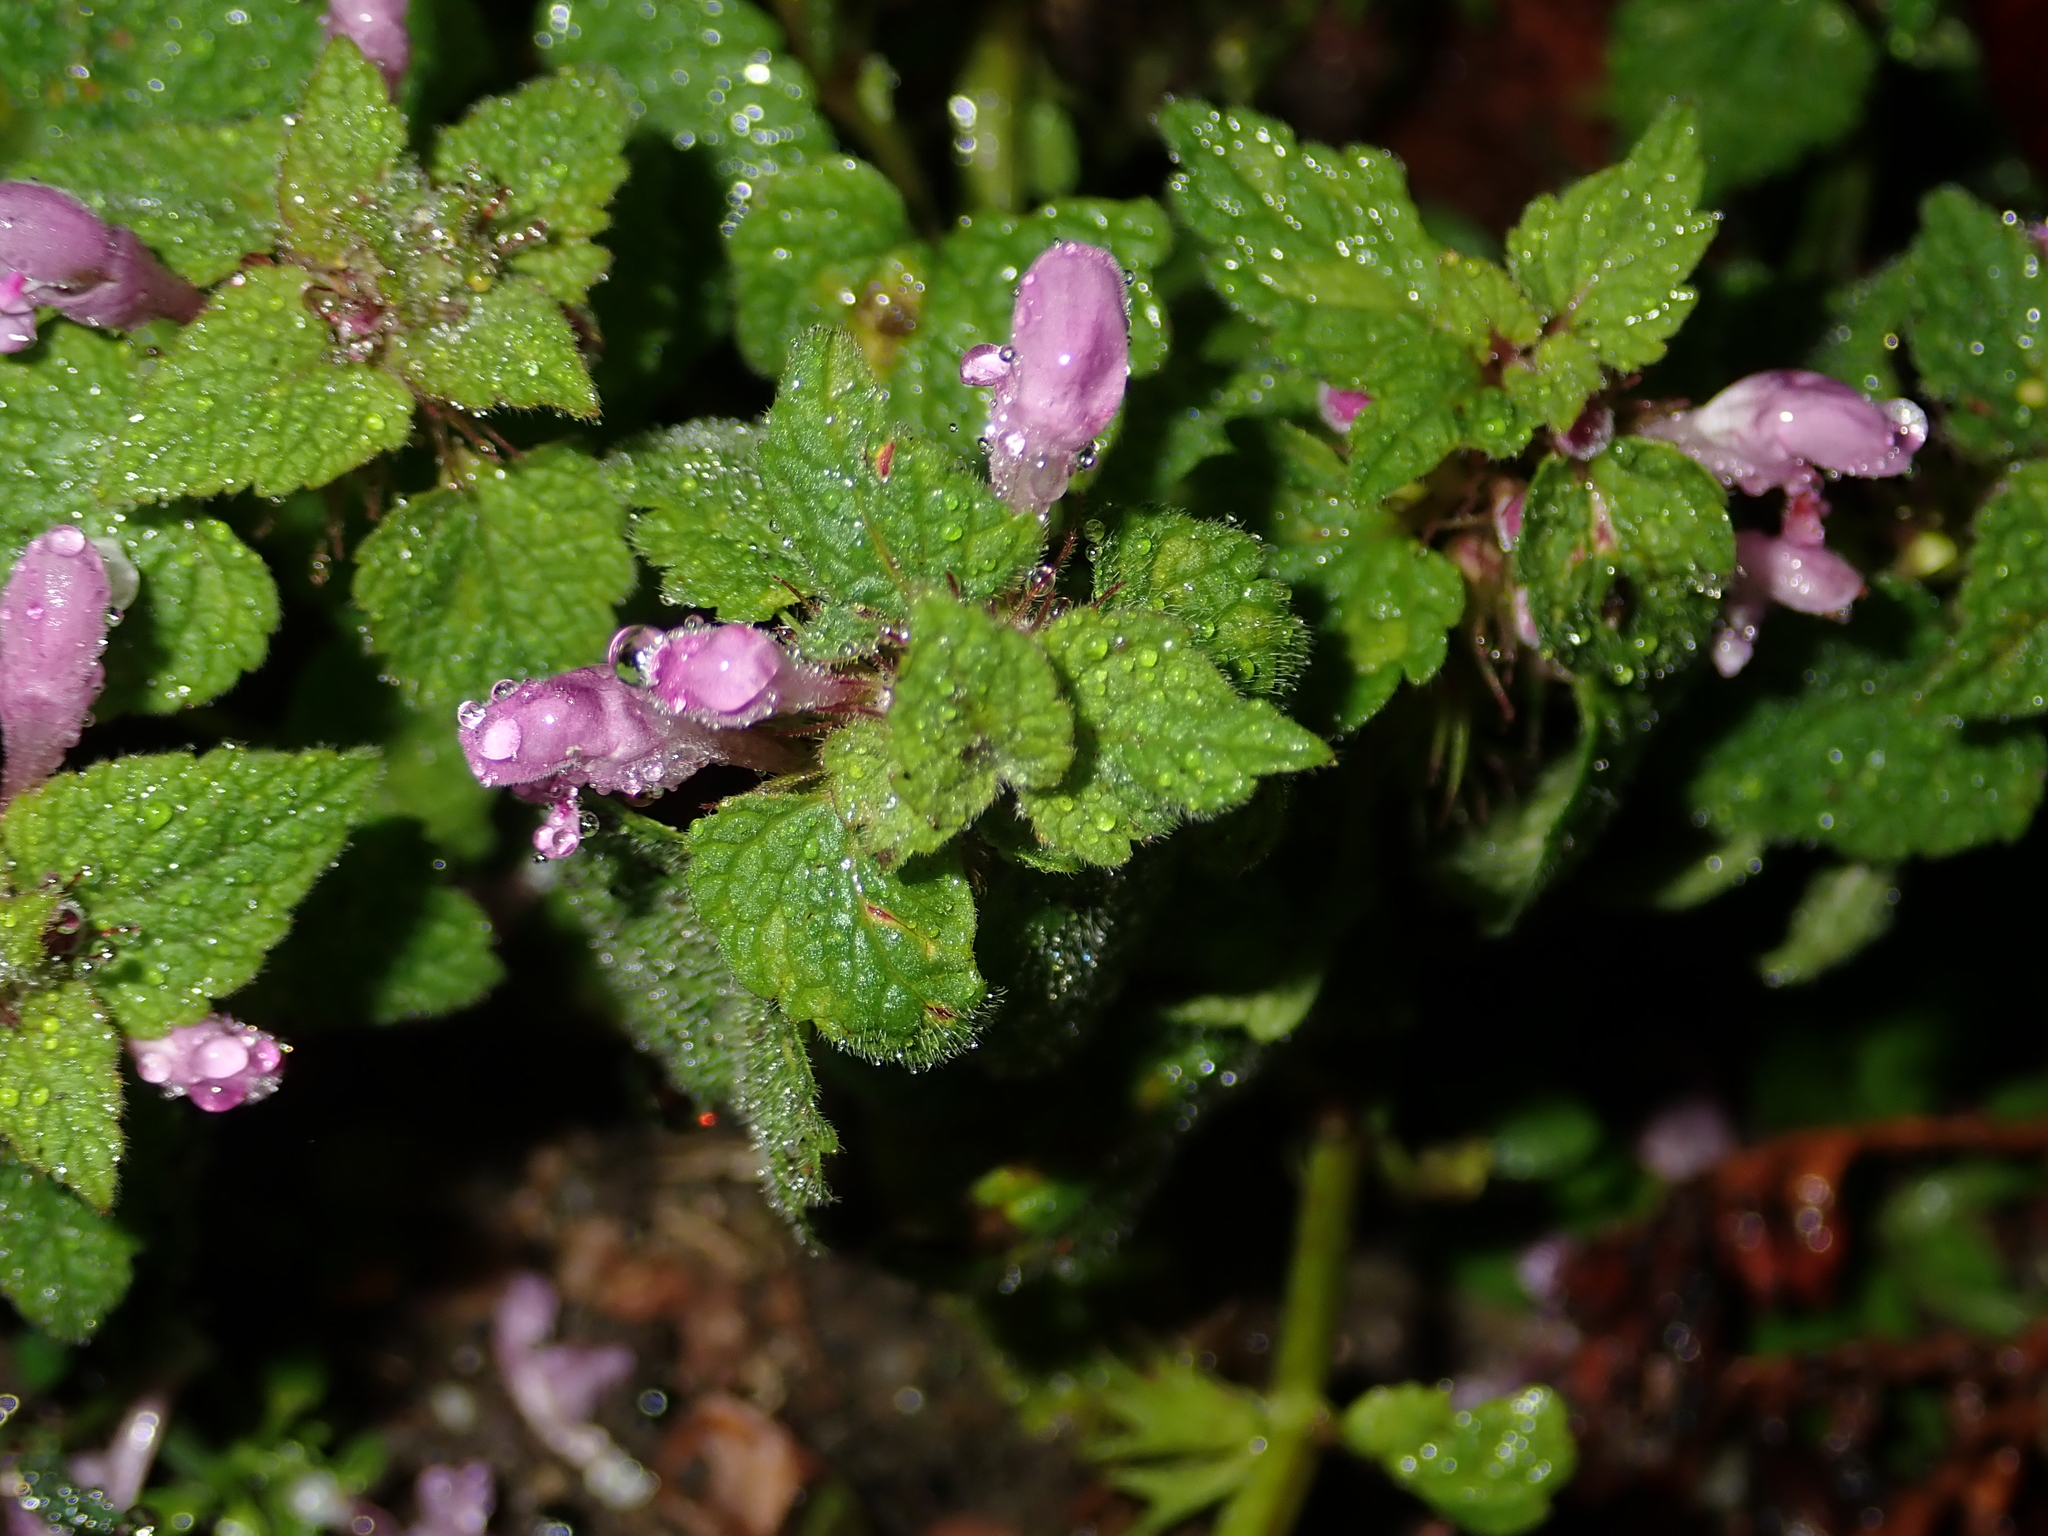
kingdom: Plantae
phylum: Tracheophyta
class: Magnoliopsida
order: Lamiales
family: Lamiaceae
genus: Lamium
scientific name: Lamium purpureum
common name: Red dead-nettle
